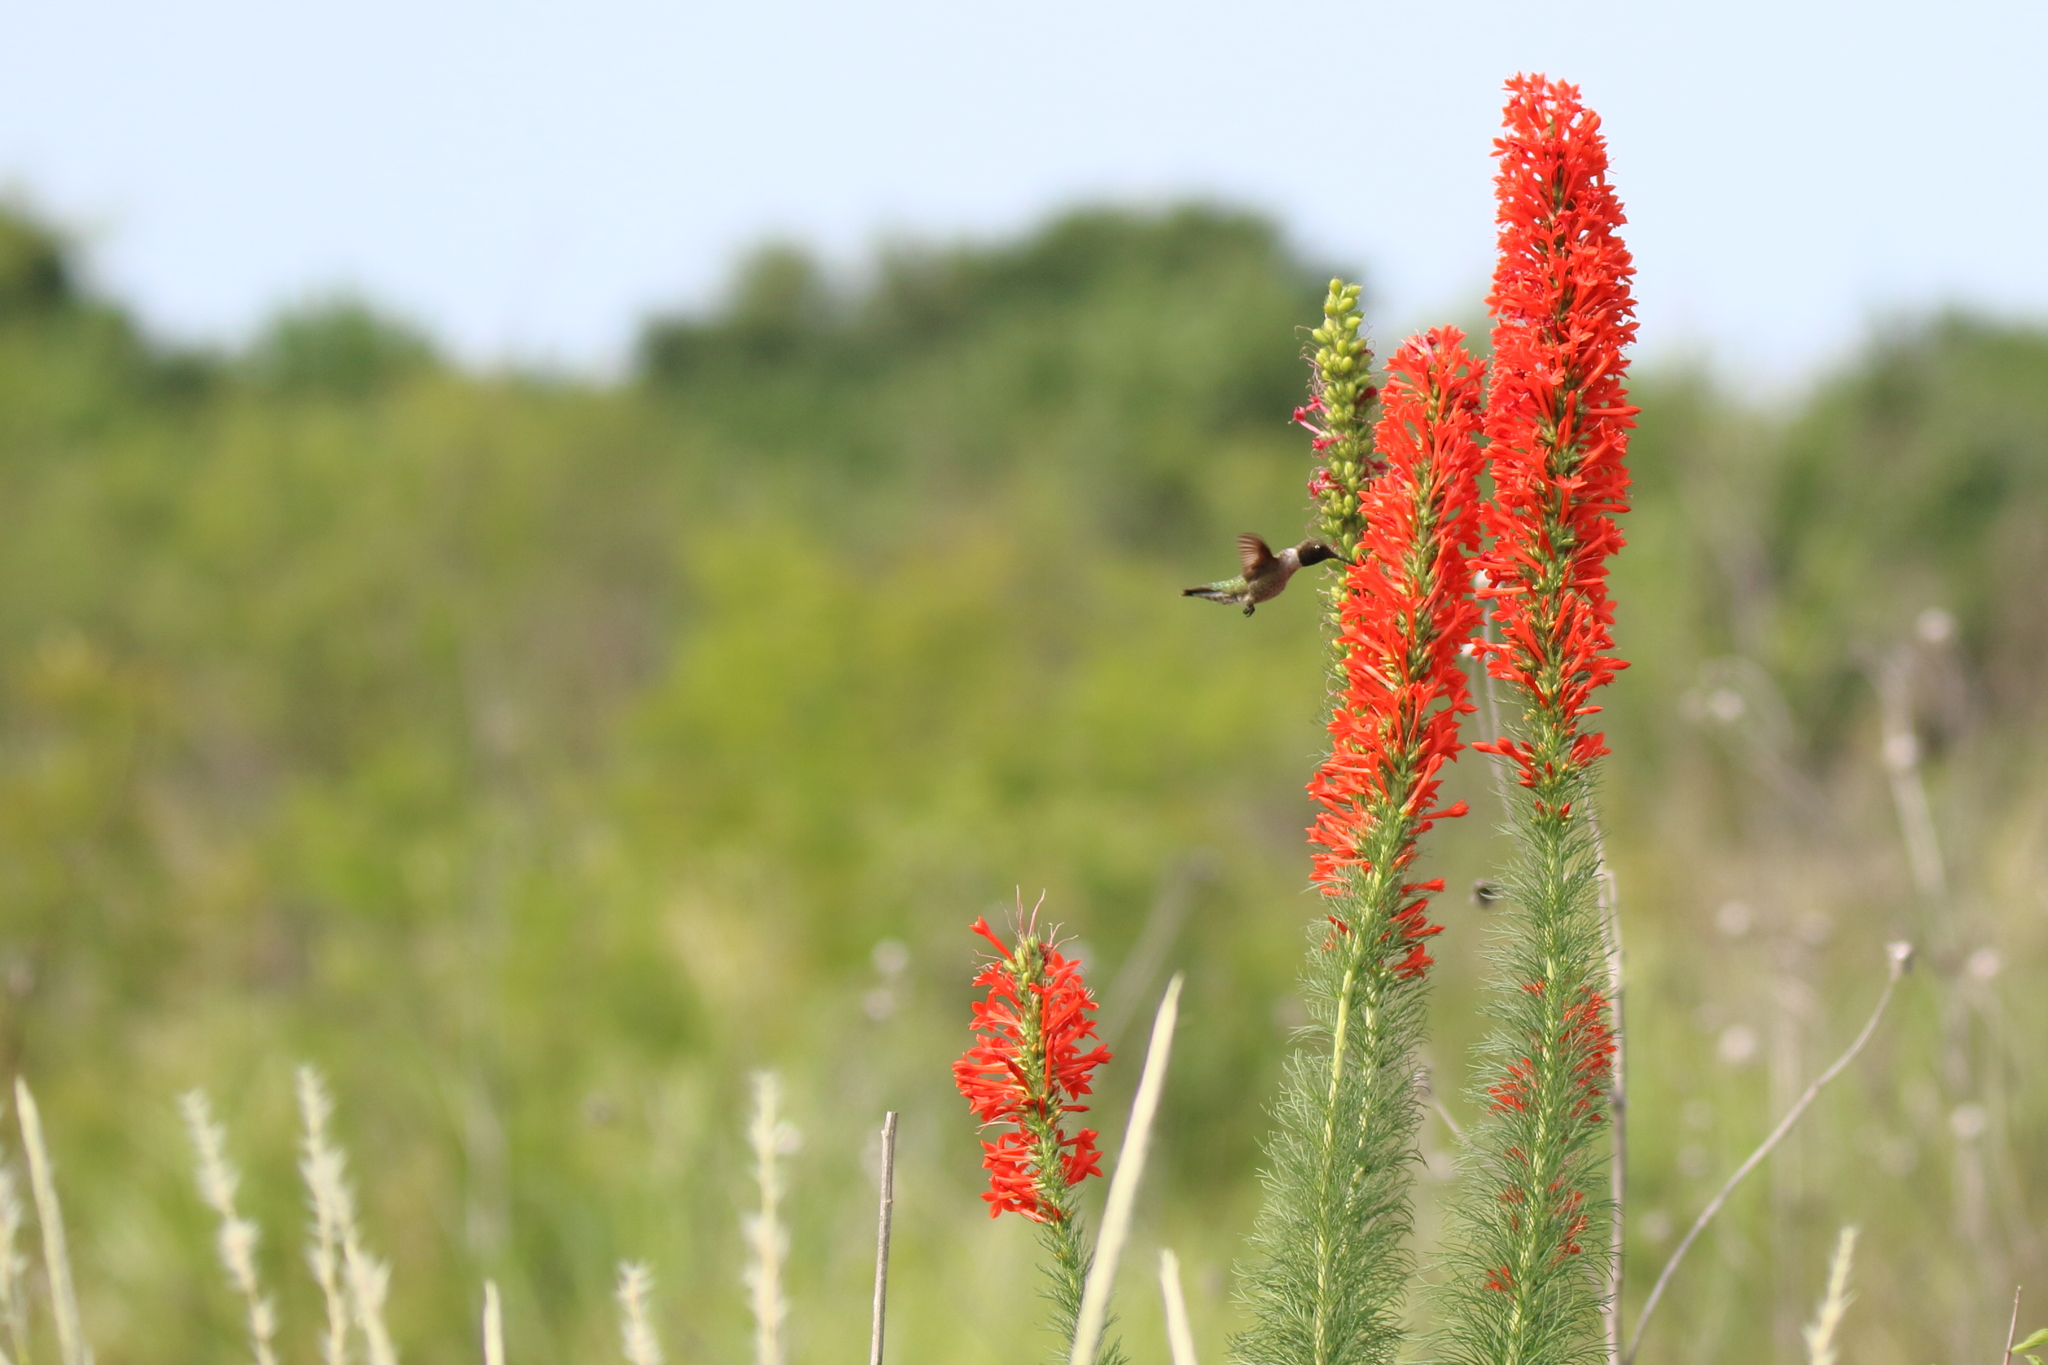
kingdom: Animalia
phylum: Chordata
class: Aves
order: Apodiformes
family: Trochilidae
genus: Archilochus
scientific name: Archilochus alexandri
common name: Black-chinned hummingbird
